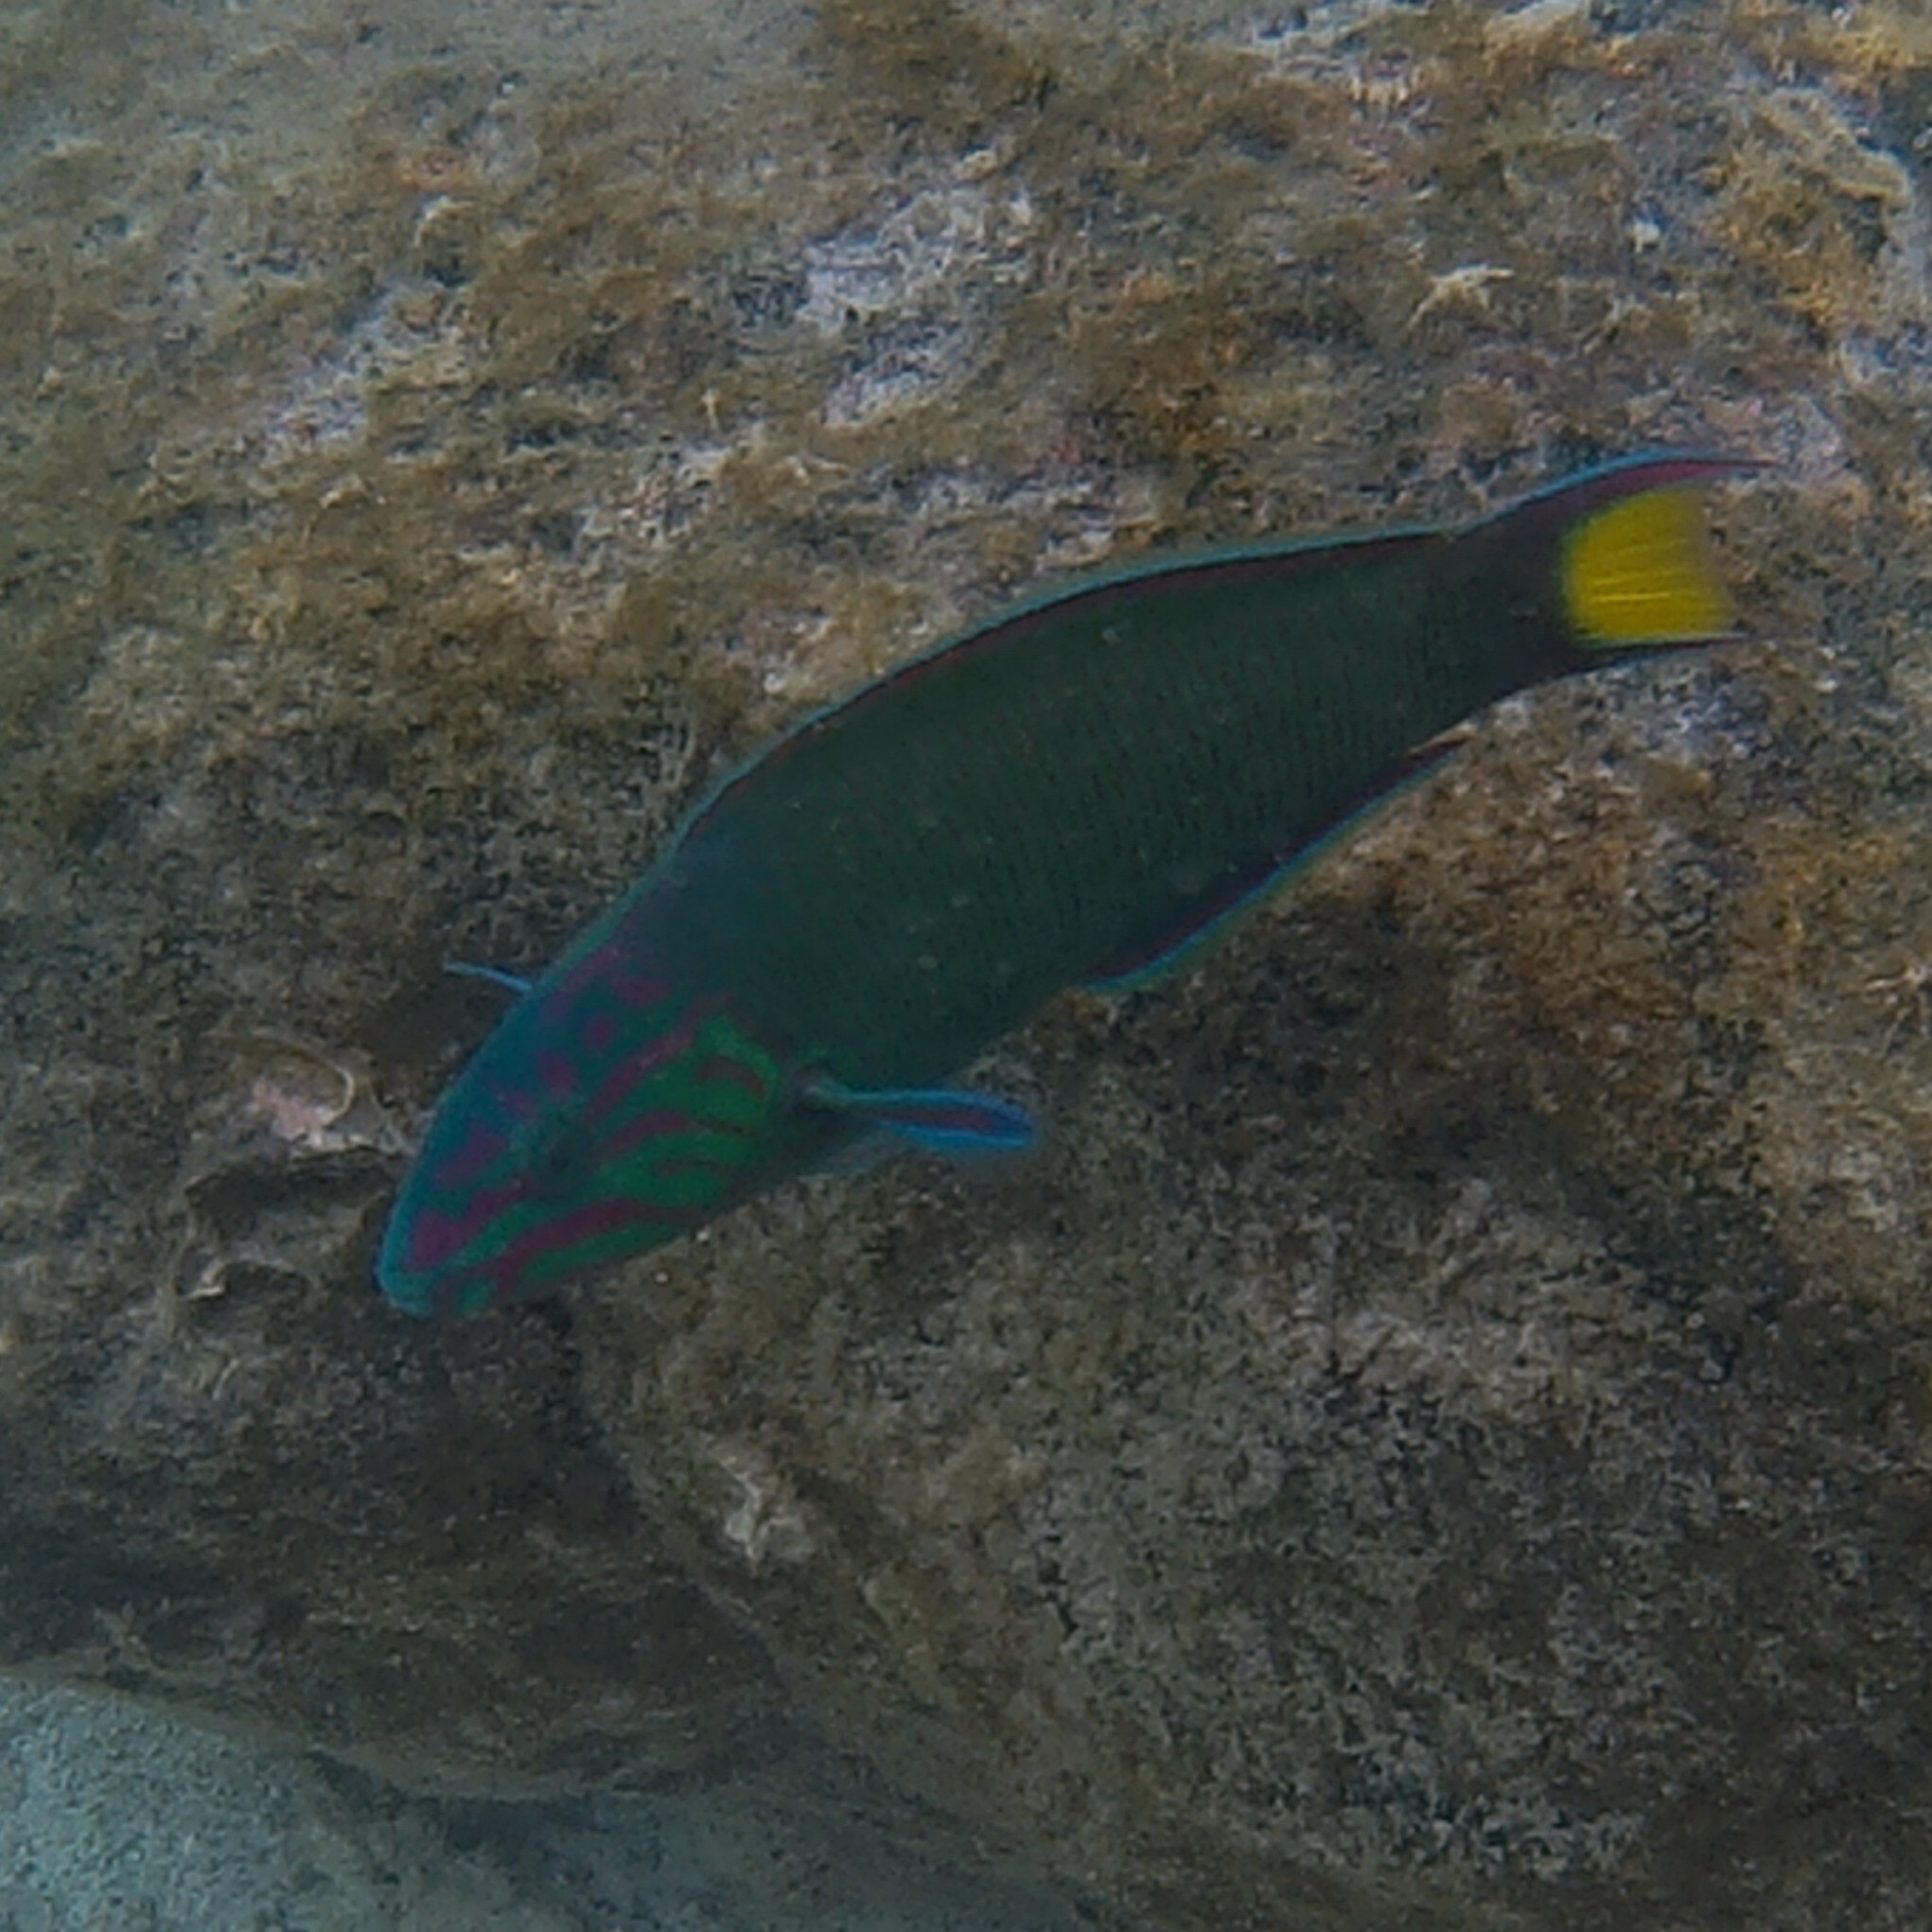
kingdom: Animalia
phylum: Chordata
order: Perciformes
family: Labridae
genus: Thalassoma
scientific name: Thalassoma lunare
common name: Blue wrasse
